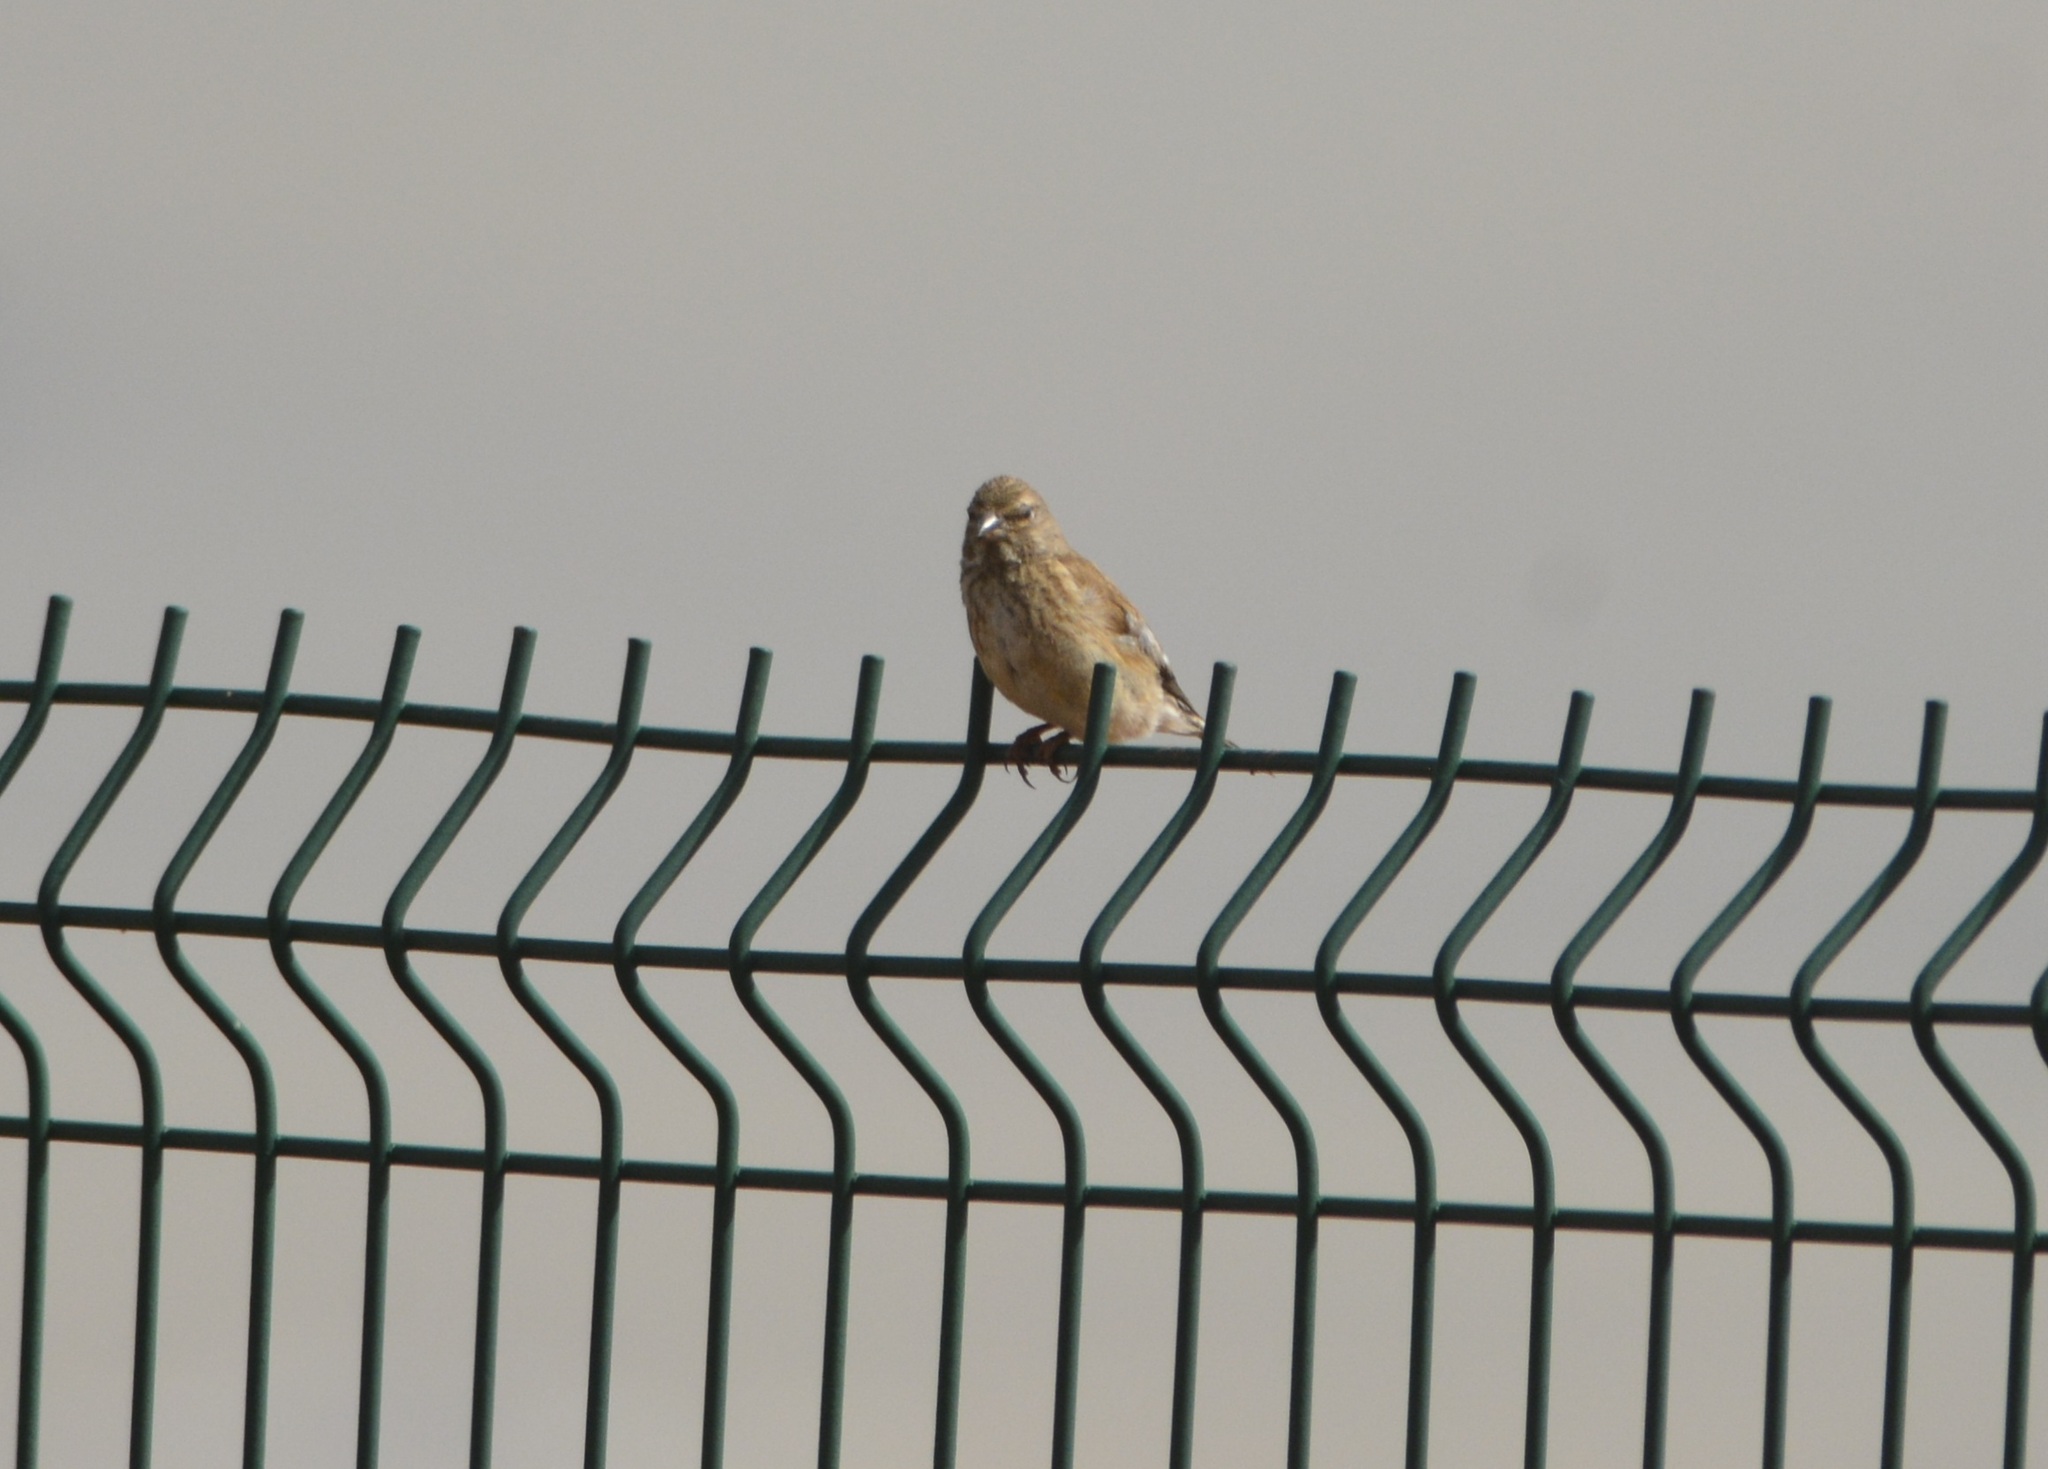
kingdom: Animalia
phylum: Chordata
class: Aves
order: Passeriformes
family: Fringillidae
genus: Linaria
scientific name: Linaria cannabina
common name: Common linnet
